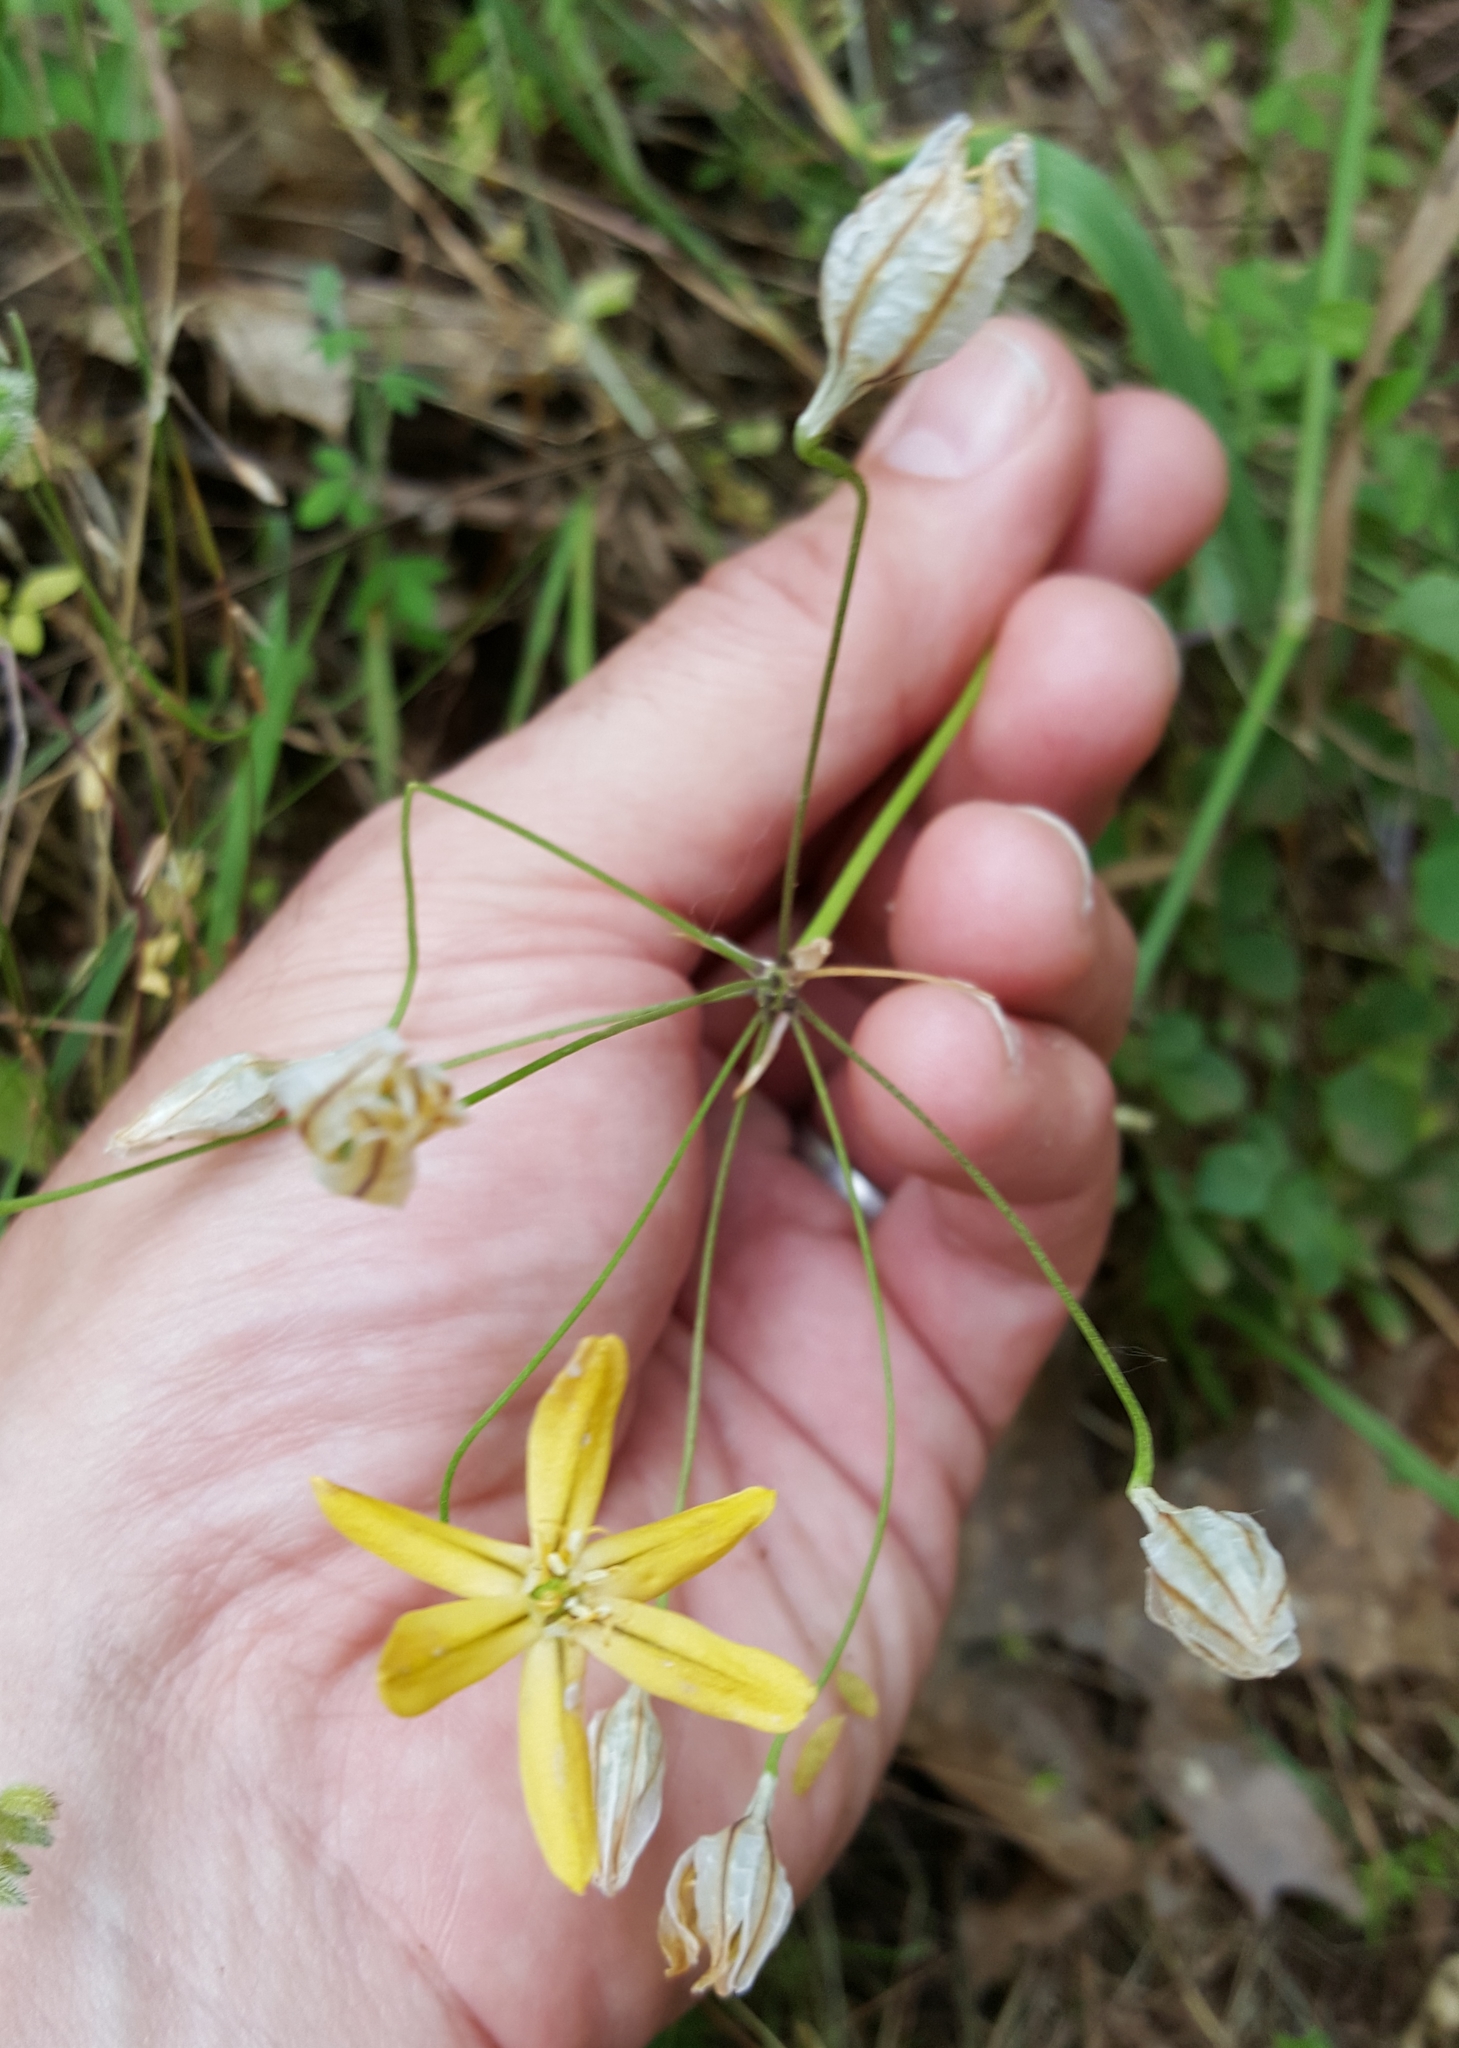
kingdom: Plantae
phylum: Tracheophyta
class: Liliopsida
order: Asparagales
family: Asparagaceae
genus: Triteleia
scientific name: Triteleia ixioides
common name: Yellow-brodiaea
